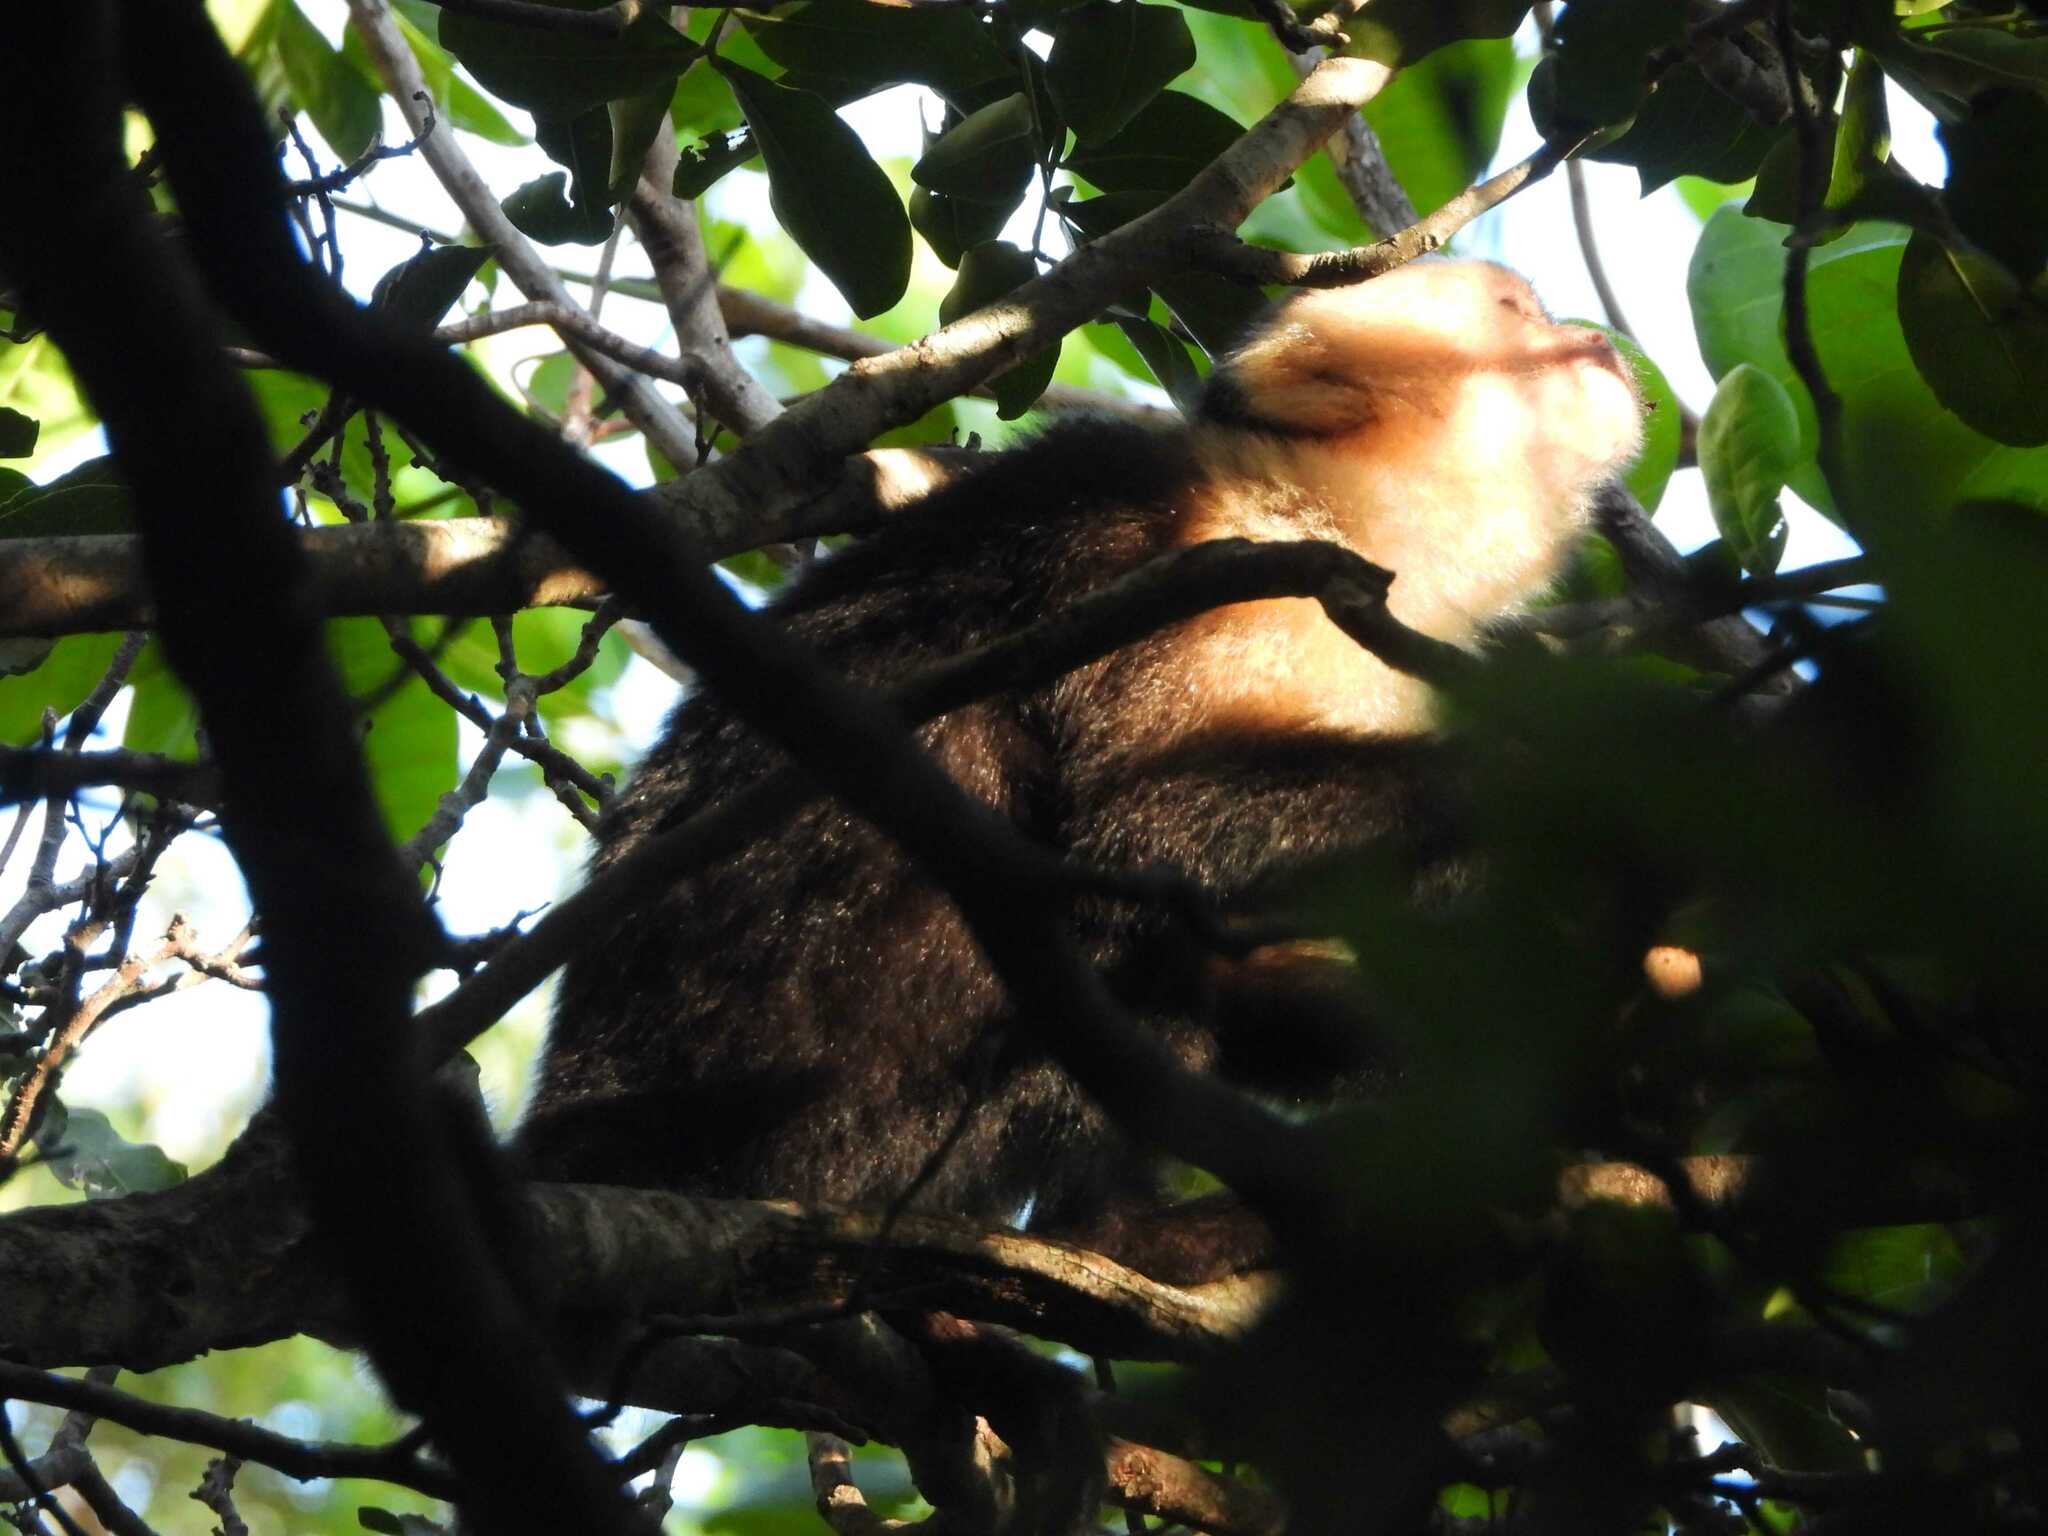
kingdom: Animalia
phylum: Chordata
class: Mammalia
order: Primates
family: Cebidae
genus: Cebus
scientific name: Cebus imitator
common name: Panamanian white-faced capuchin
